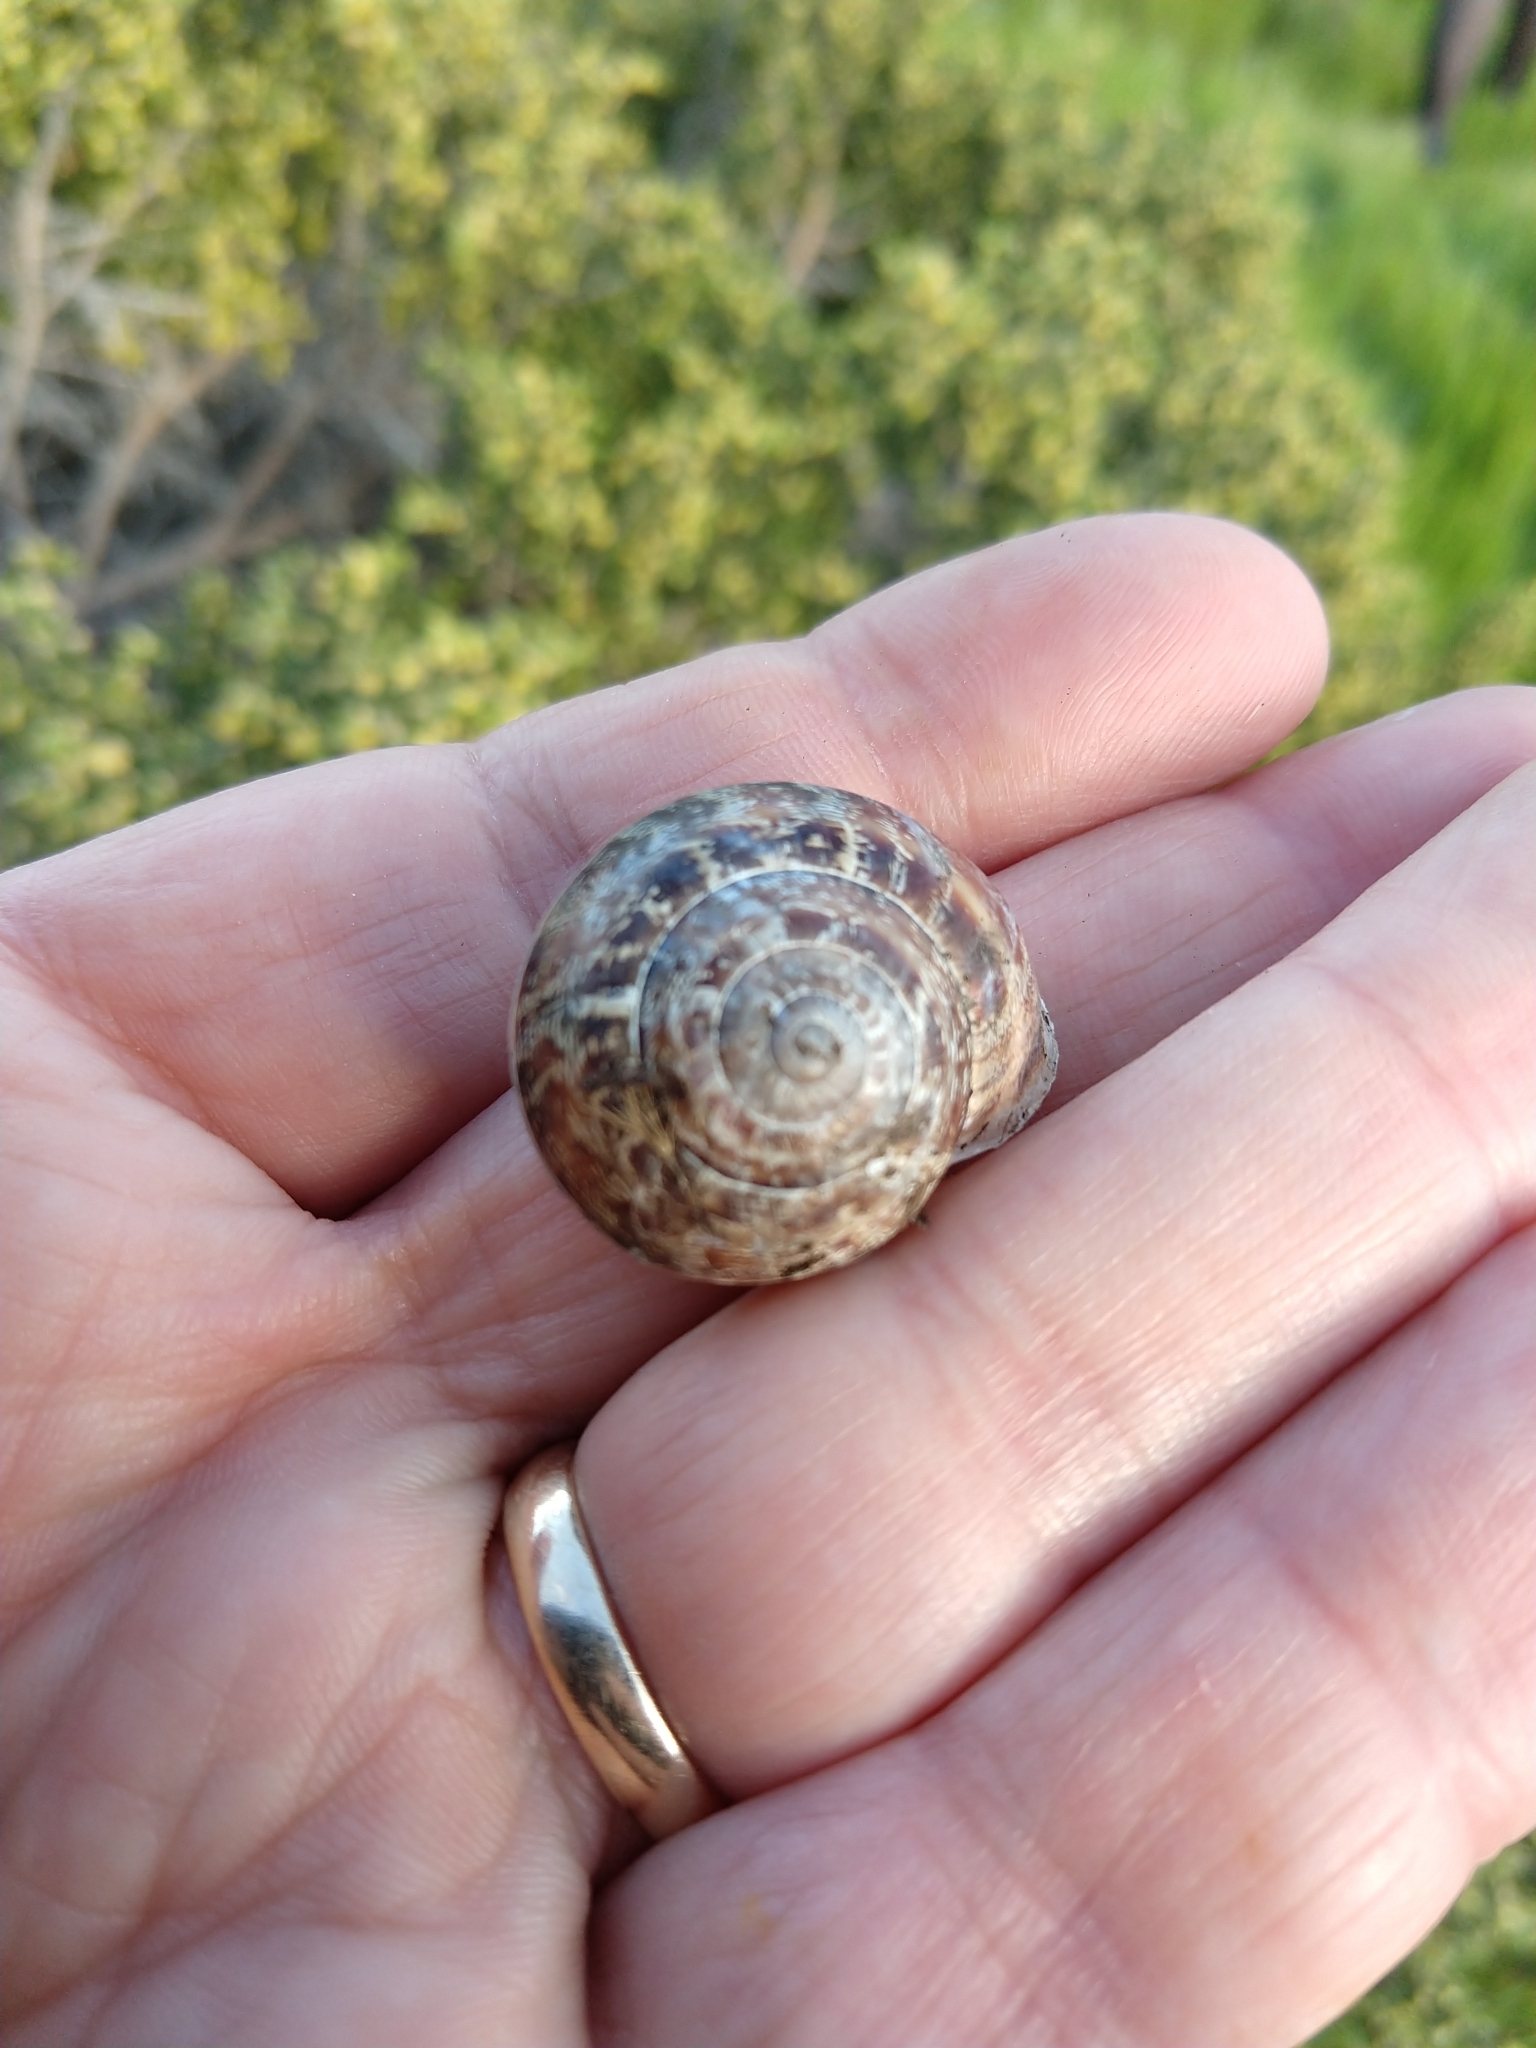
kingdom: Animalia
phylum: Mollusca
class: Gastropoda
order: Stylommatophora
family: Helicidae
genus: Eobania
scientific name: Eobania vermiculata
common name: Chocolateband snail
